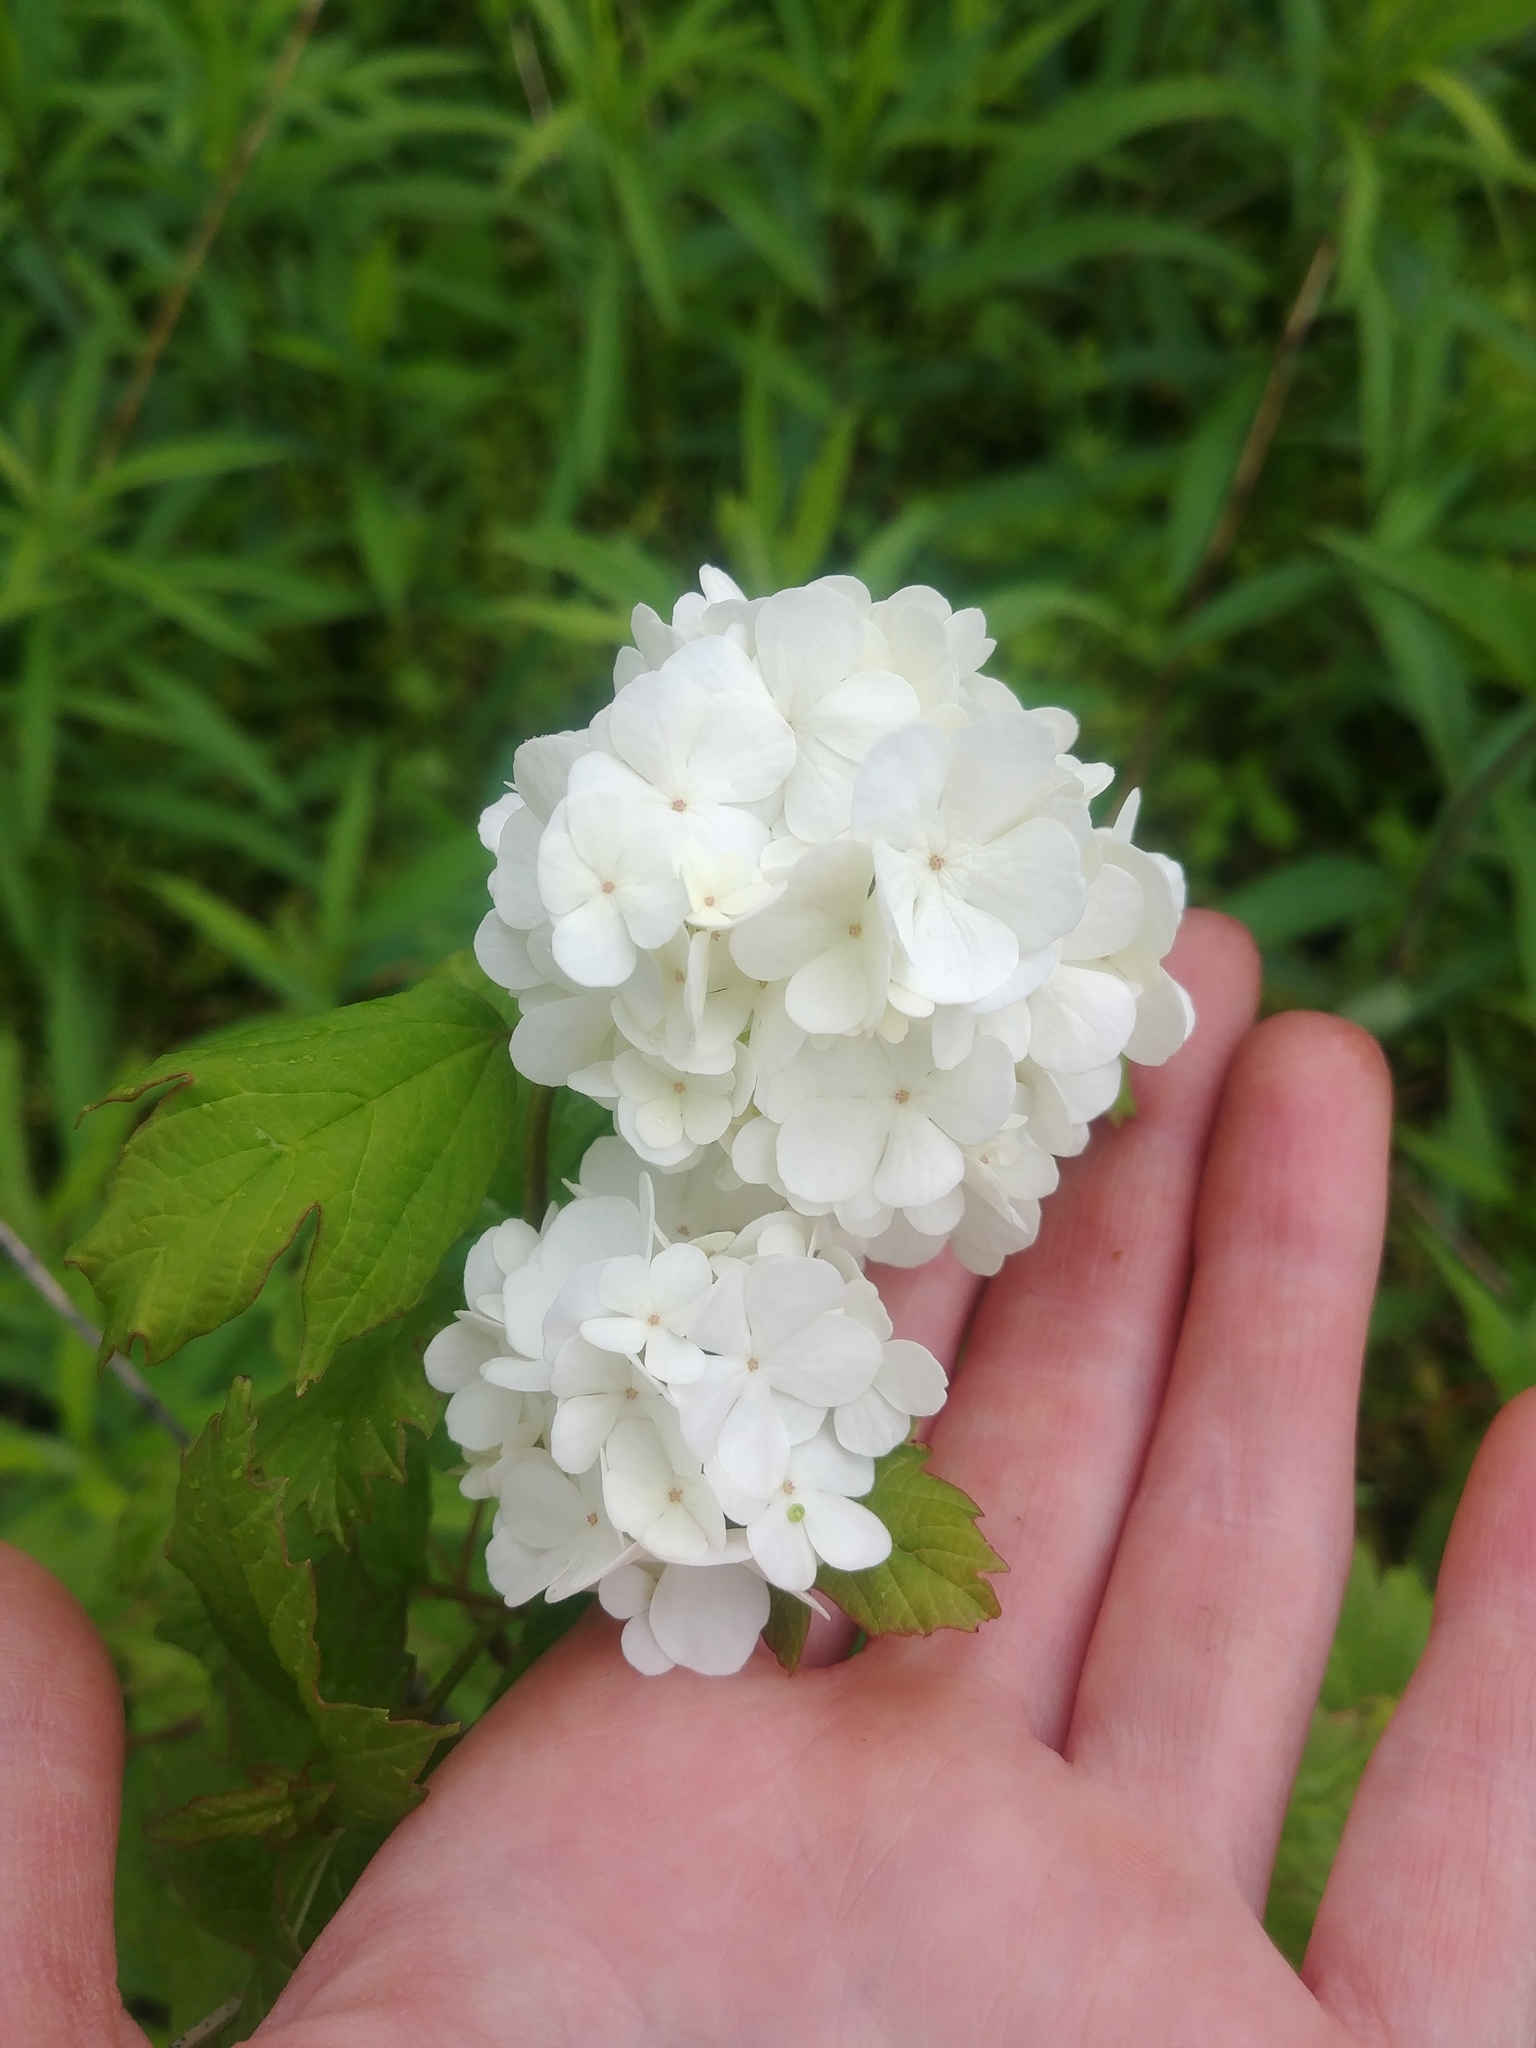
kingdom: Plantae
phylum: Tracheophyta
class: Magnoliopsida
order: Dipsacales
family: Viburnaceae
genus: Viburnum
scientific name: Viburnum opulus
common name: Guelder-rose
